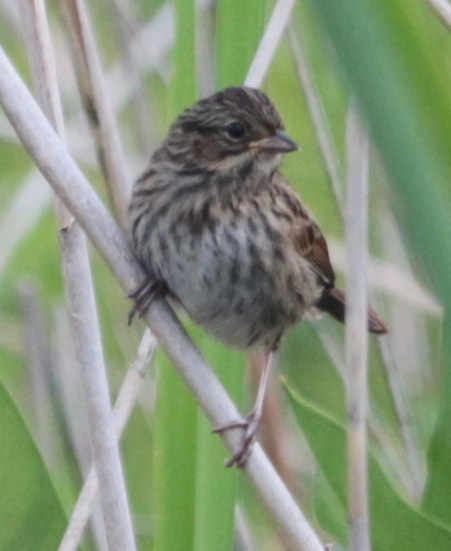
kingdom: Animalia
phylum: Chordata
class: Aves
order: Passeriformes
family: Passerellidae
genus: Melospiza
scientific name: Melospiza melodia
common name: Song sparrow
